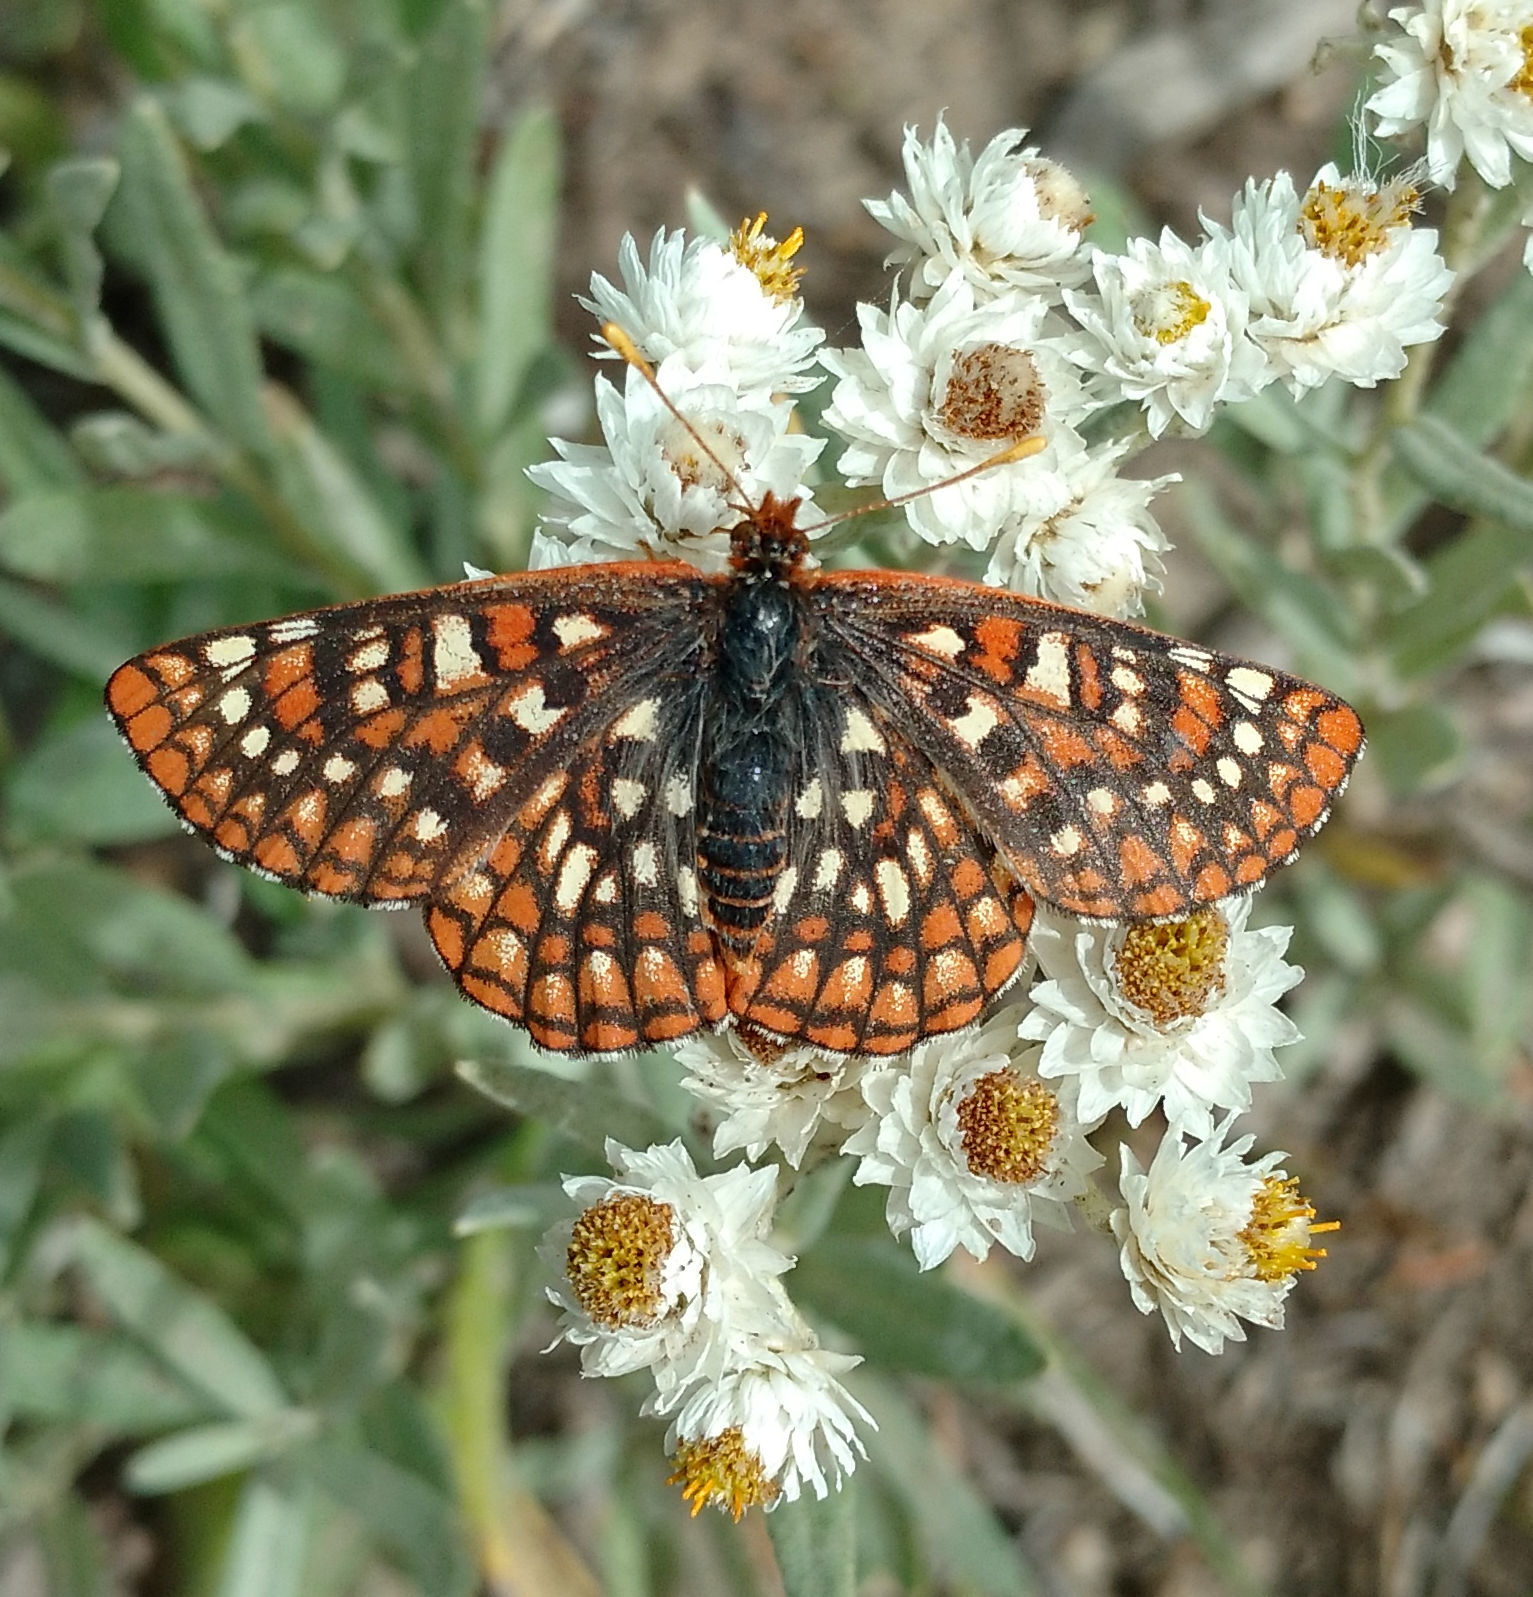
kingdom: Animalia
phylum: Arthropoda
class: Insecta
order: Lepidoptera
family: Nymphalidae
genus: Occidryas
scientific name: Occidryas anicia
